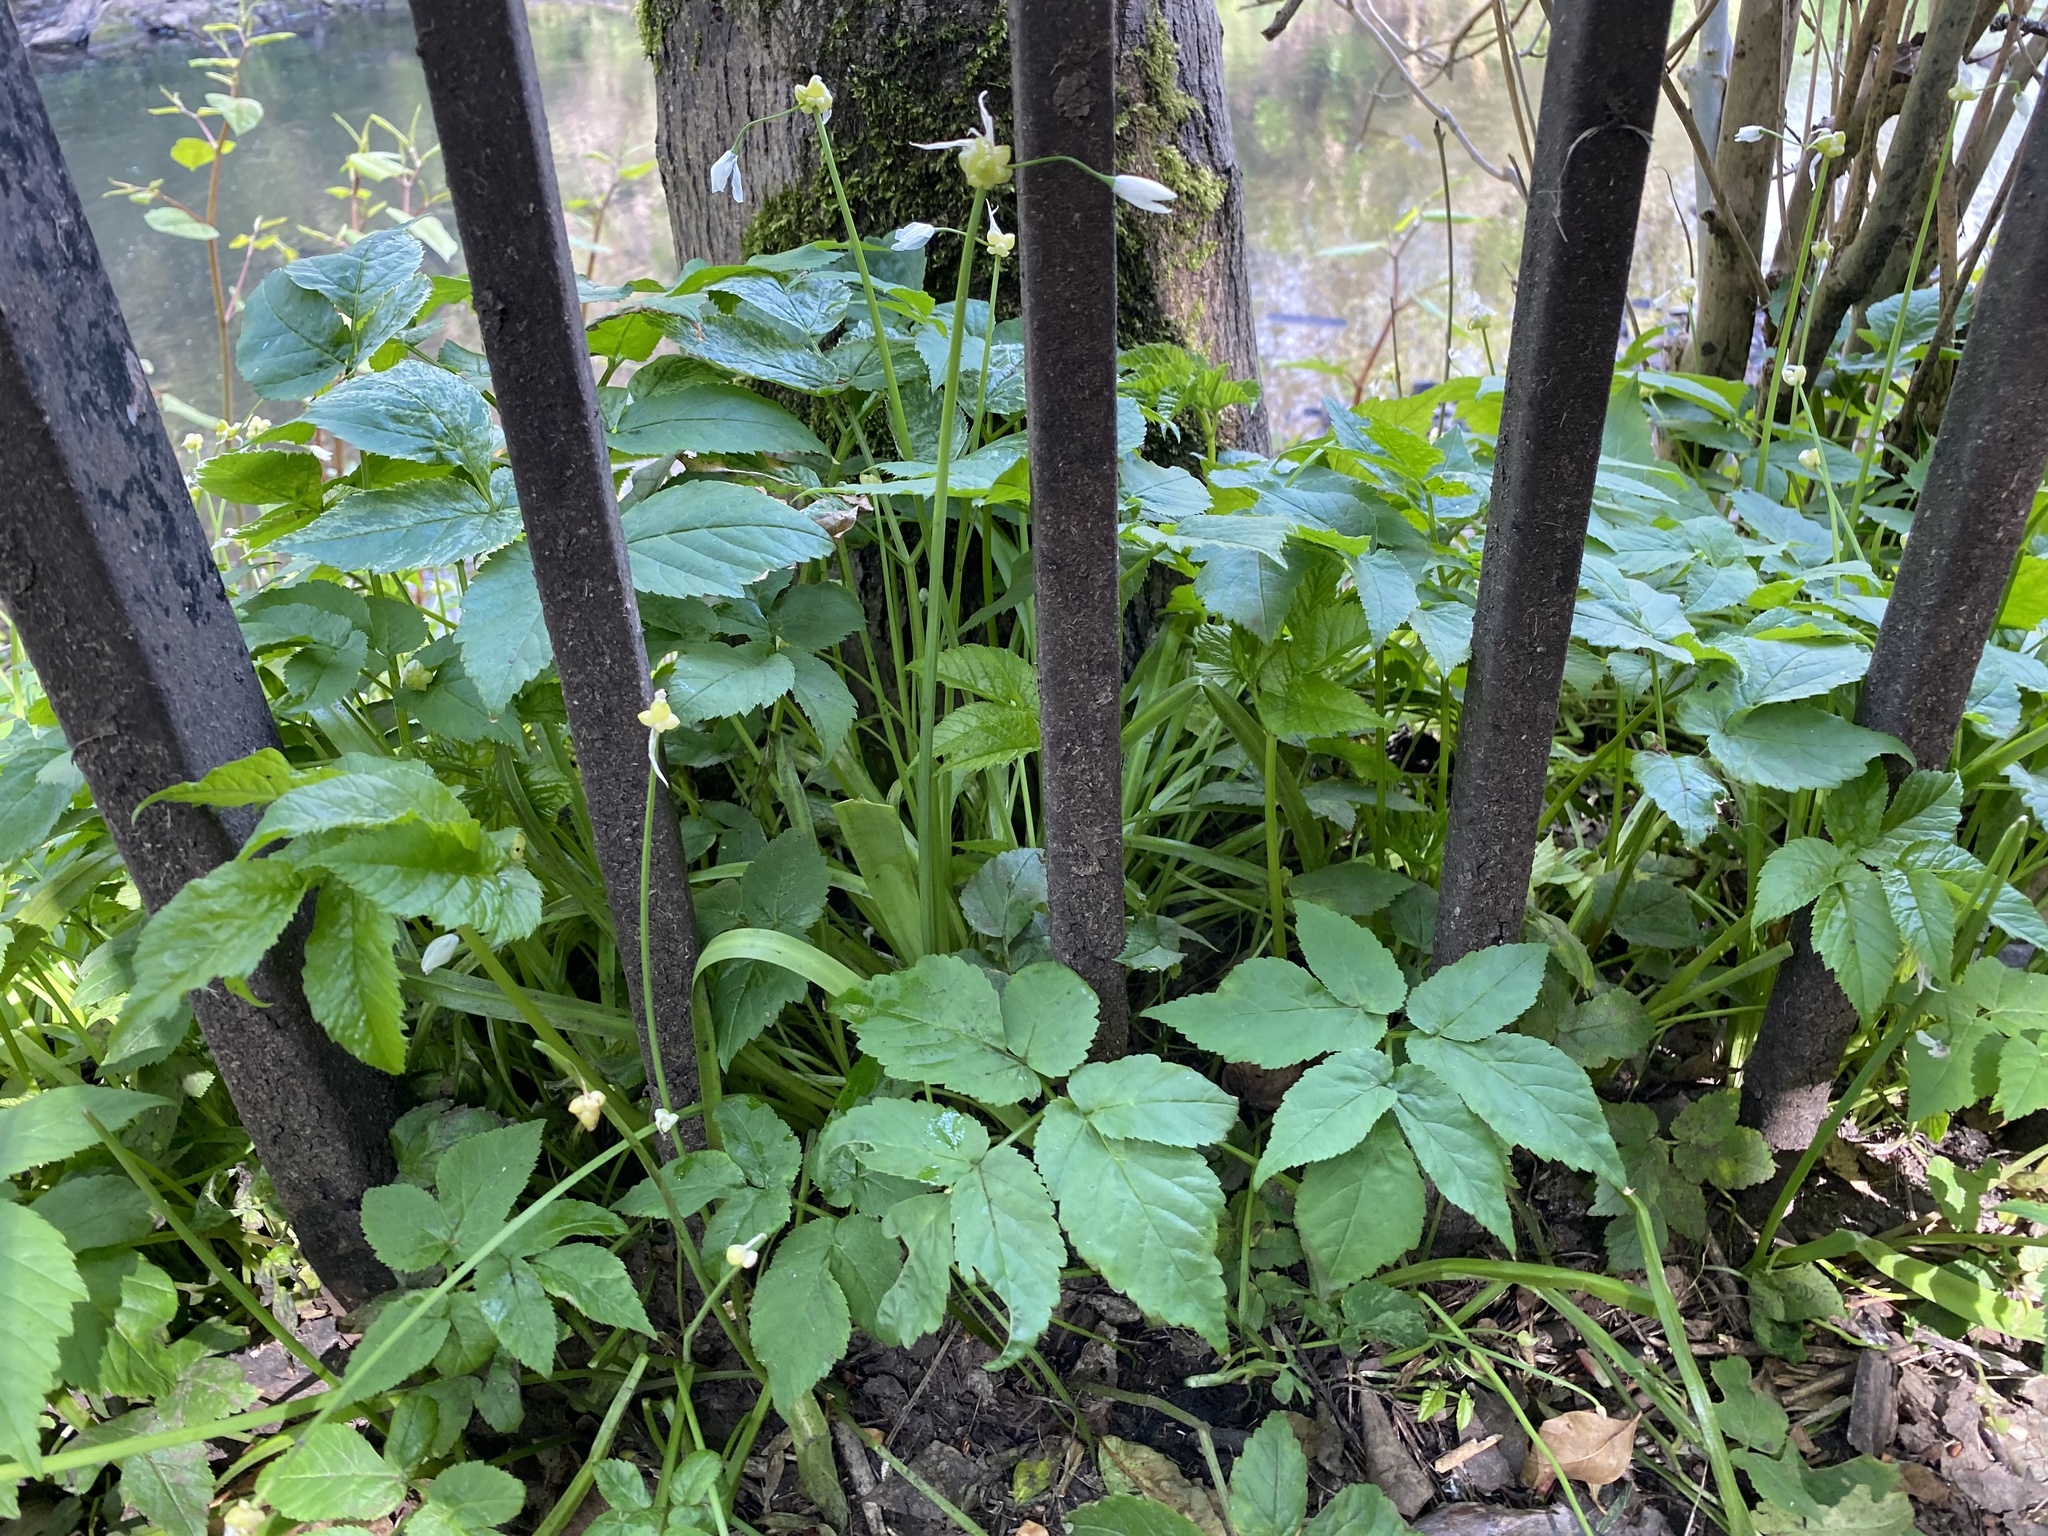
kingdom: Plantae
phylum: Tracheophyta
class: Magnoliopsida
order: Apiales
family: Apiaceae
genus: Aegopodium
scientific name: Aegopodium podagraria
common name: Ground-elder
